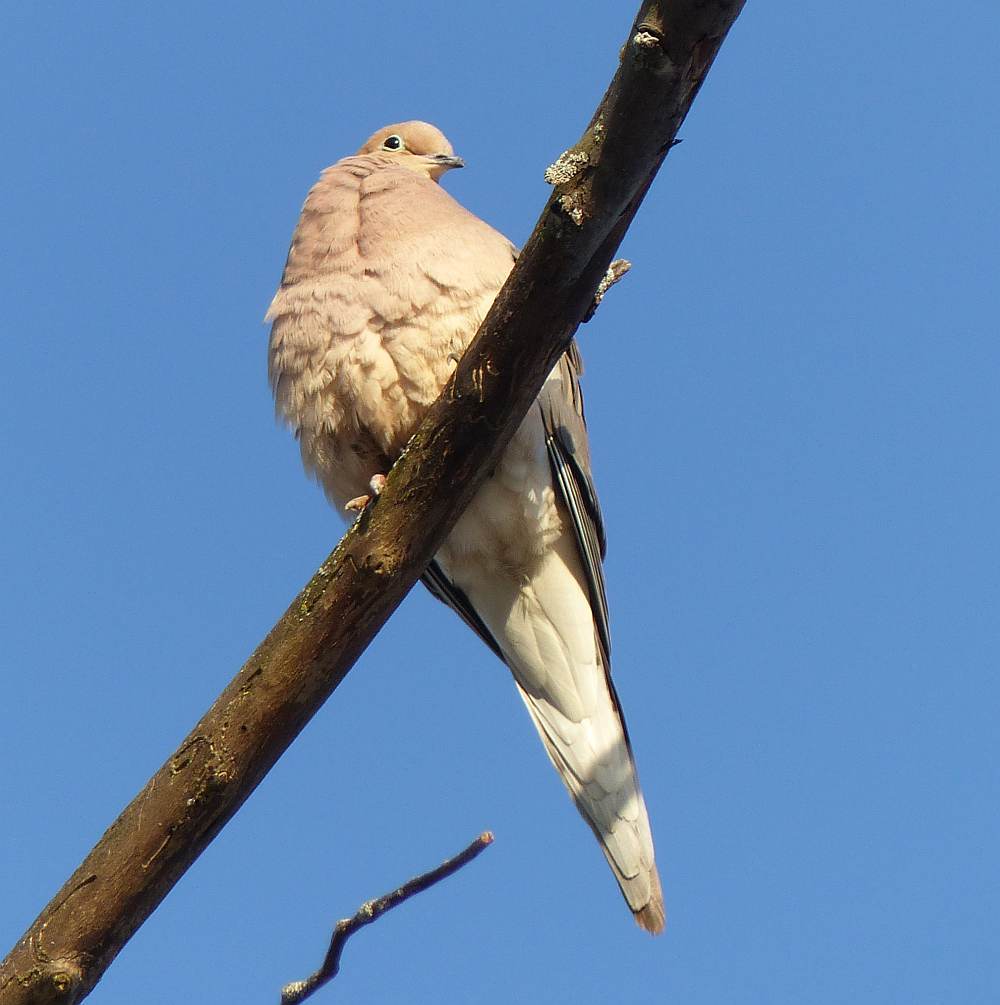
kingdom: Animalia
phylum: Chordata
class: Aves
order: Columbiformes
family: Columbidae
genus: Zenaida
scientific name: Zenaida macroura
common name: Mourning dove
